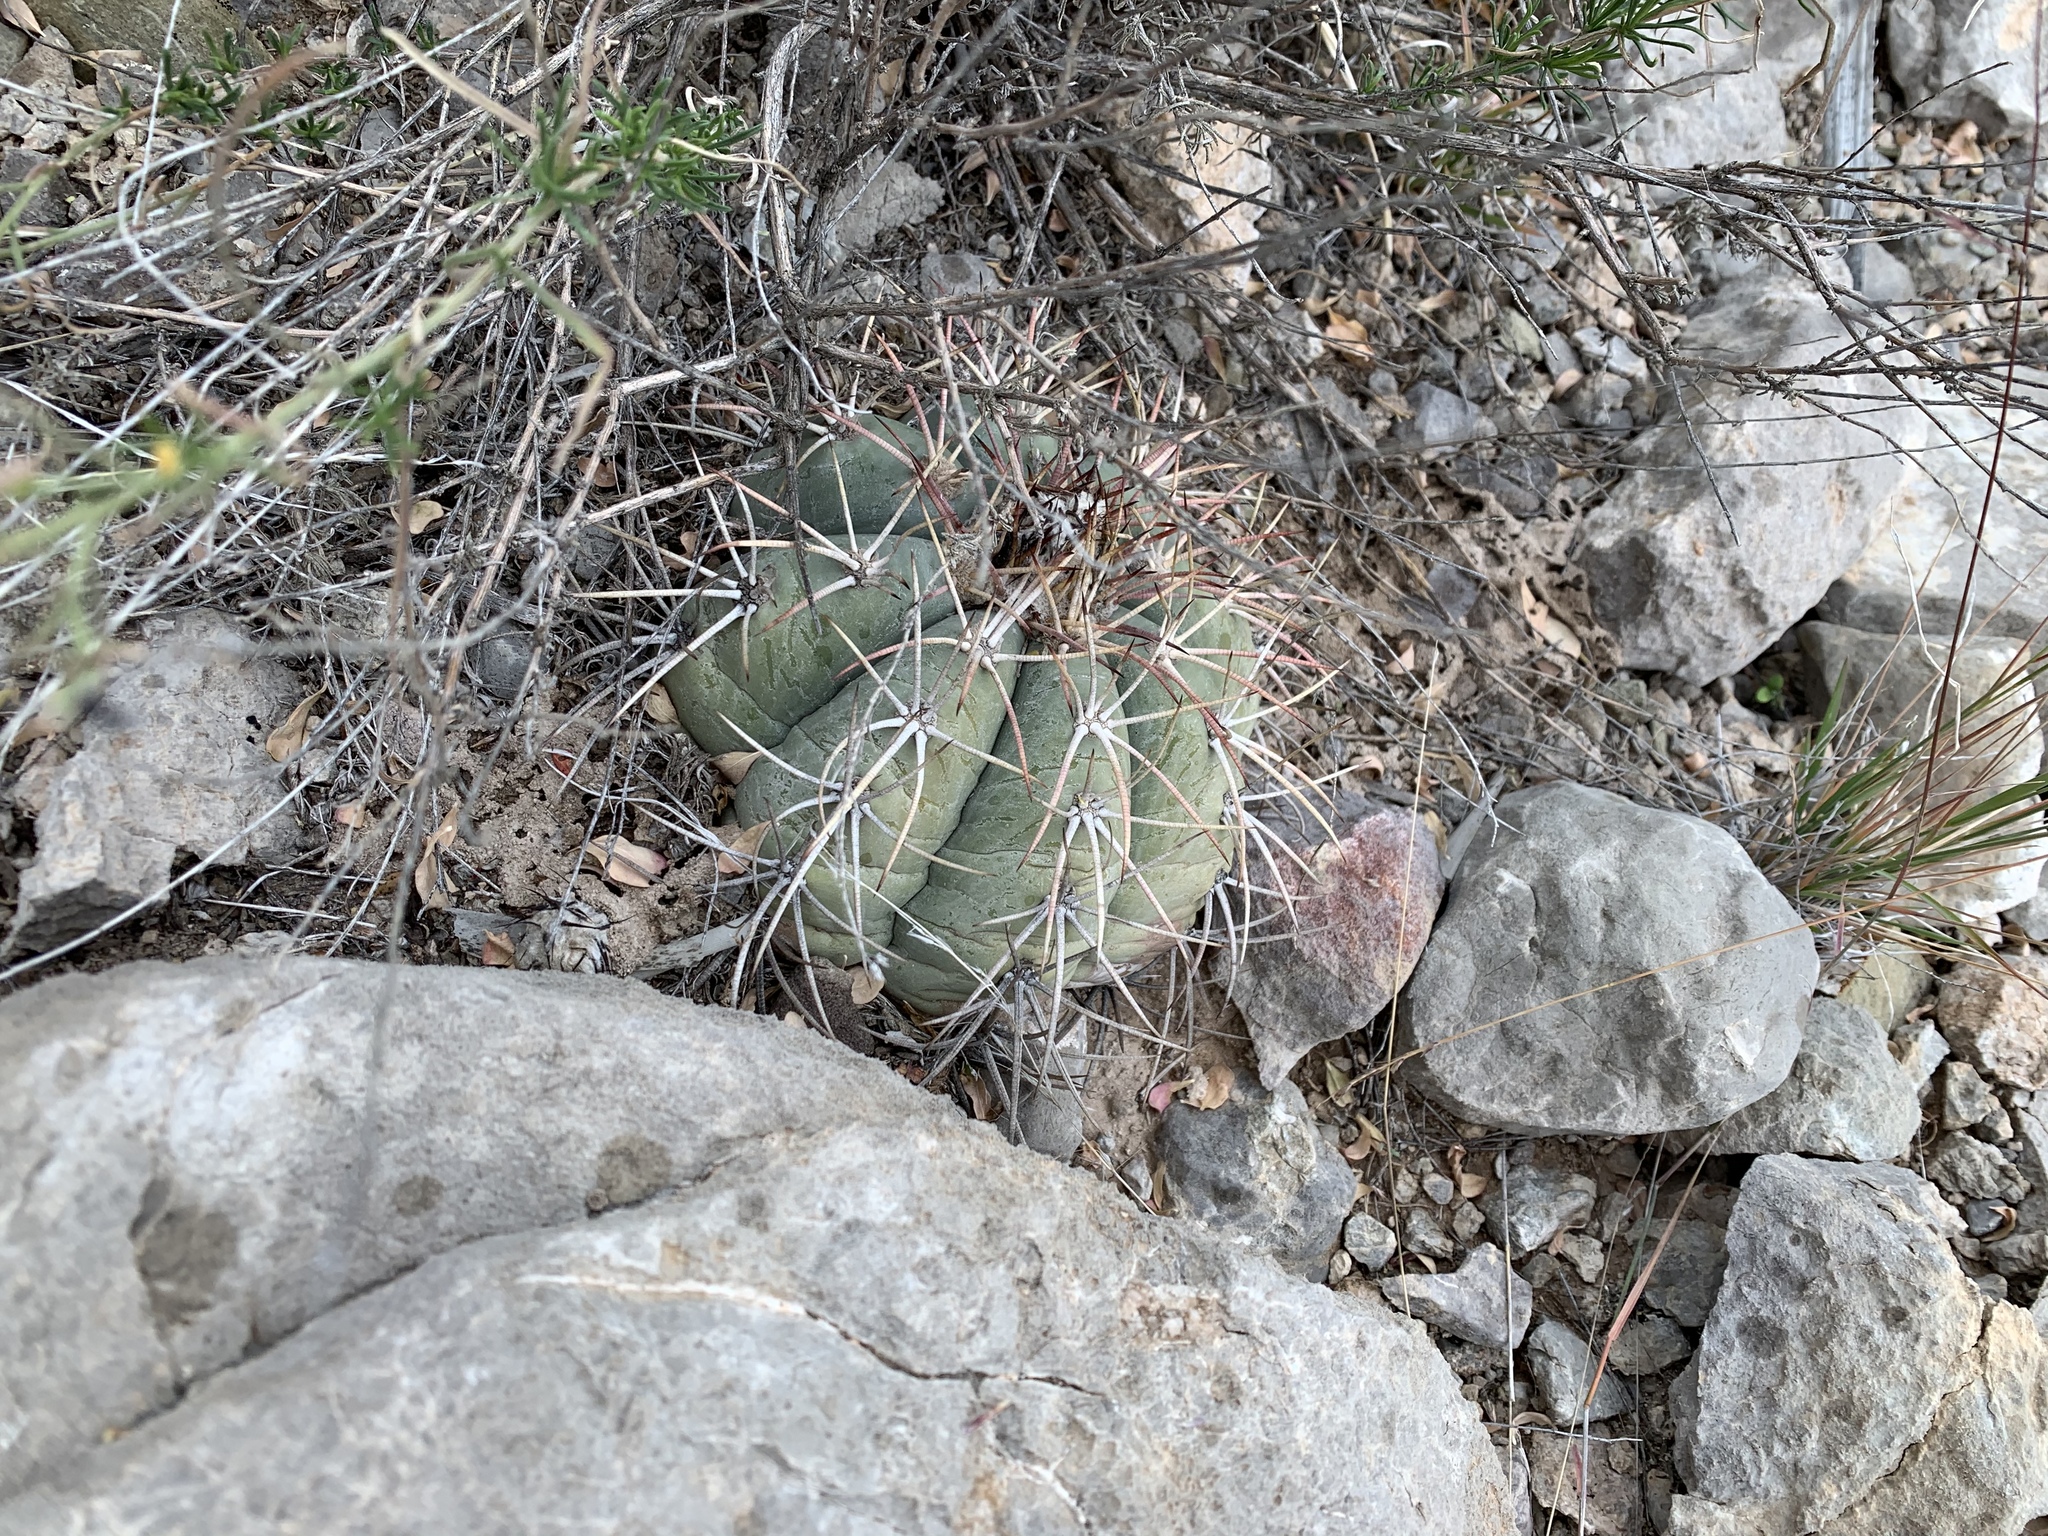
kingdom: Plantae
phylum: Tracheophyta
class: Magnoliopsida
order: Caryophyllales
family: Cactaceae
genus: Echinocactus
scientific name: Echinocactus horizonthalonius
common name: Devilshead
